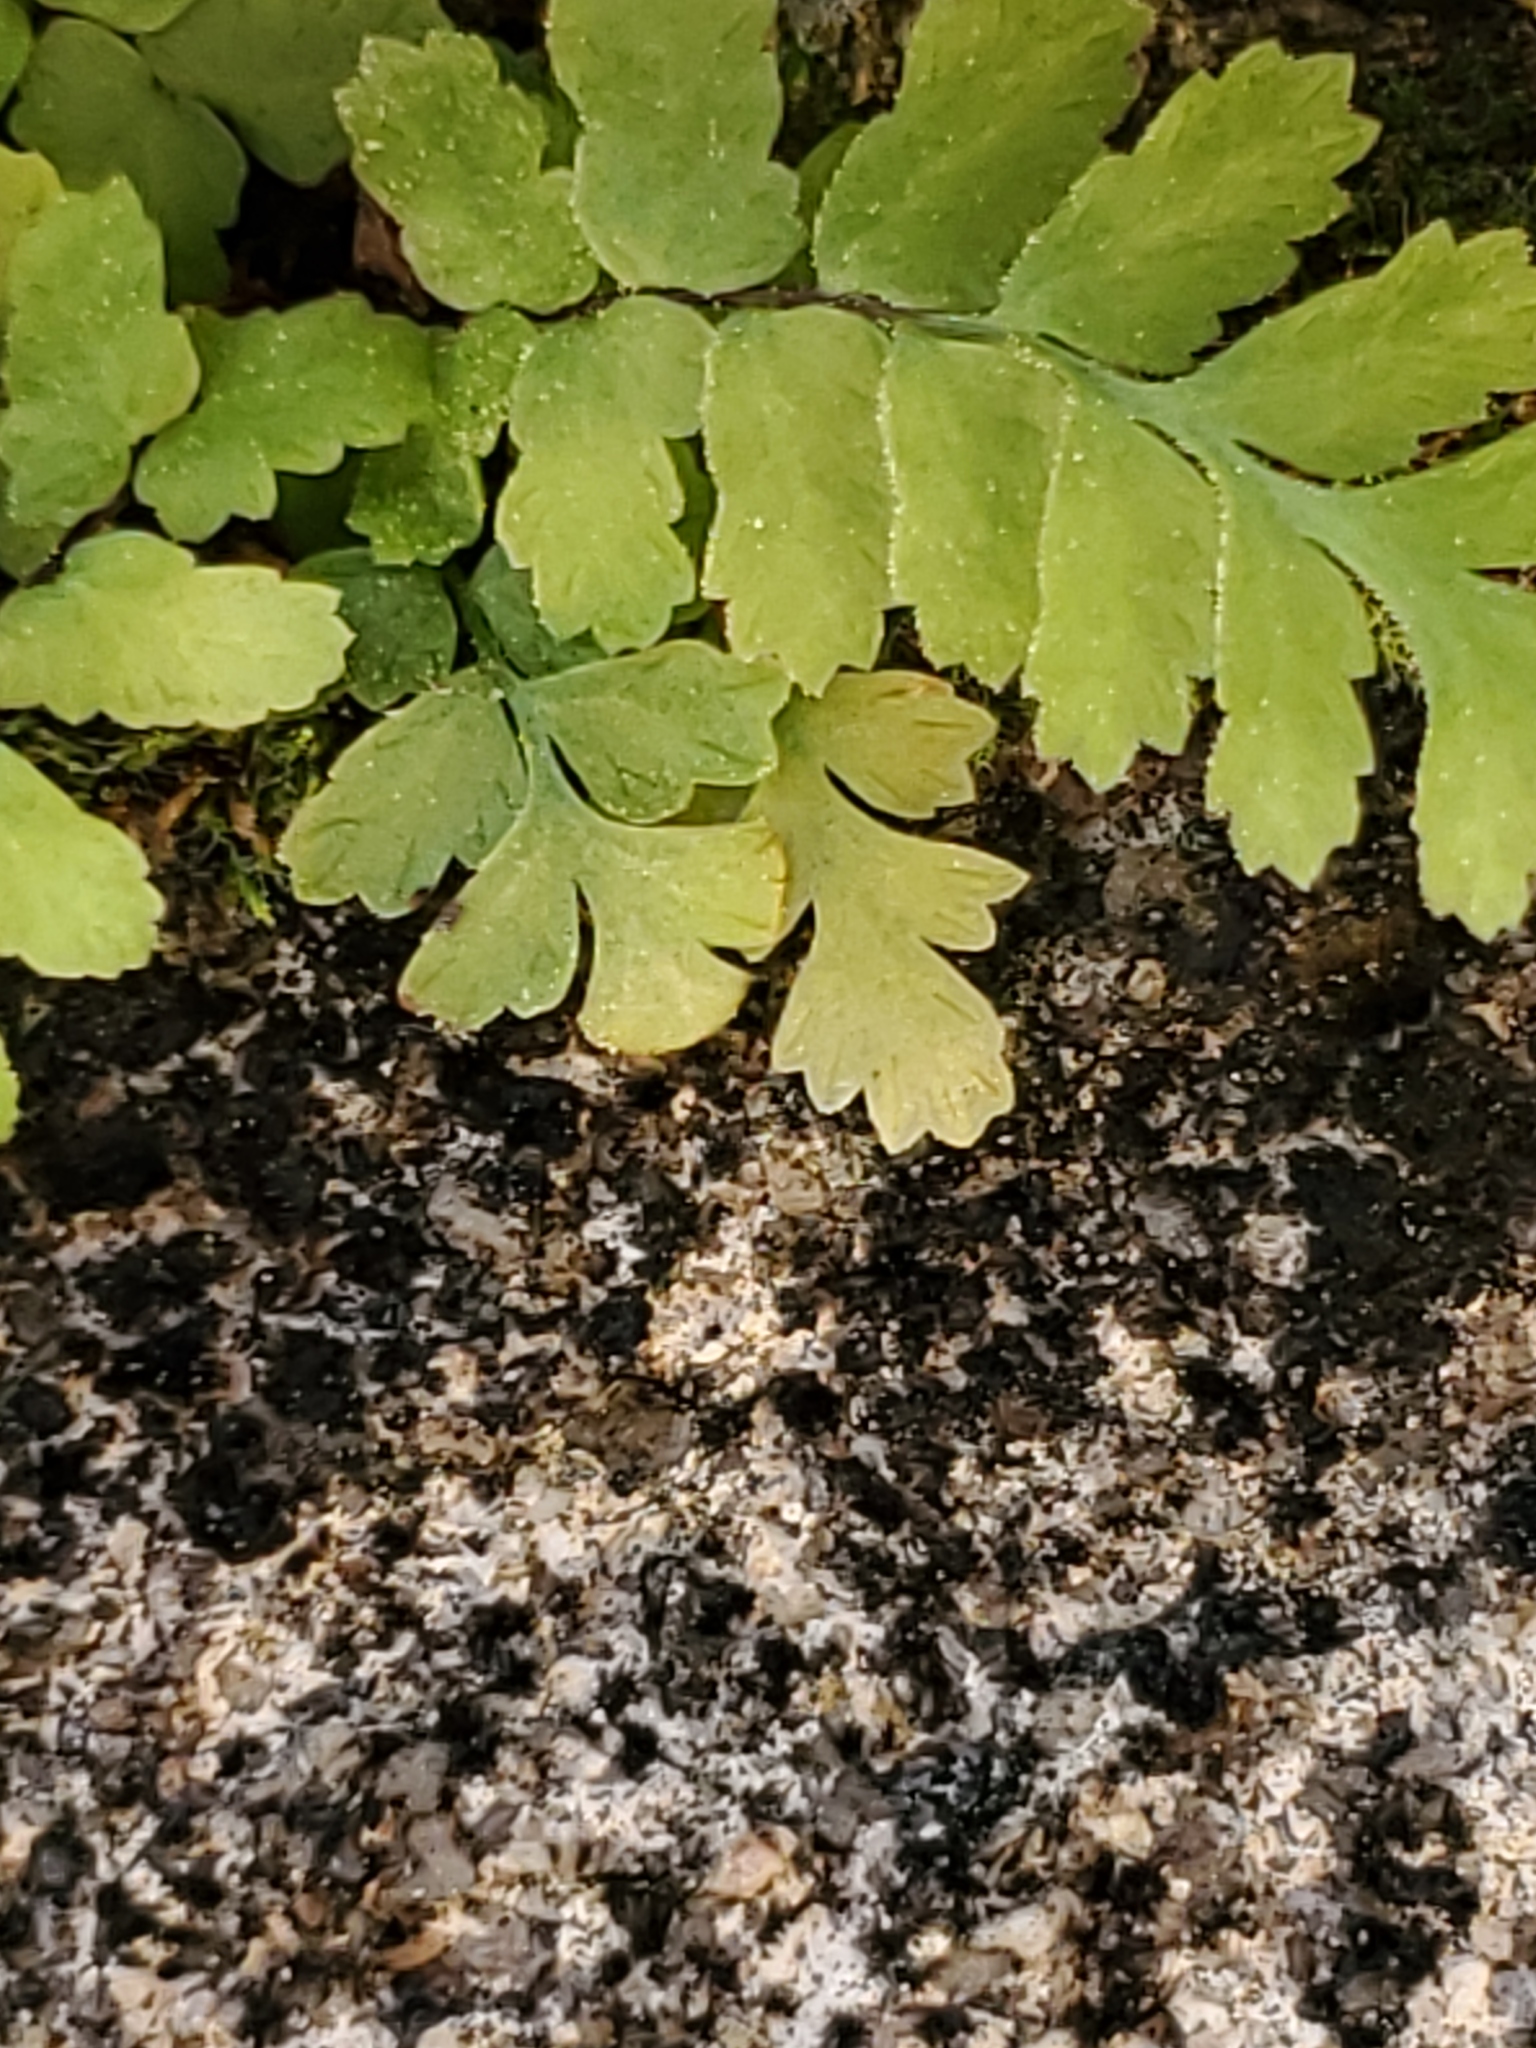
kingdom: Plantae
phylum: Tracheophyta
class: Polypodiopsida
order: Polypodiales
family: Aspleniaceae
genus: Asplenium
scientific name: Asplenium platyneuron
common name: Ebony spleenwort
